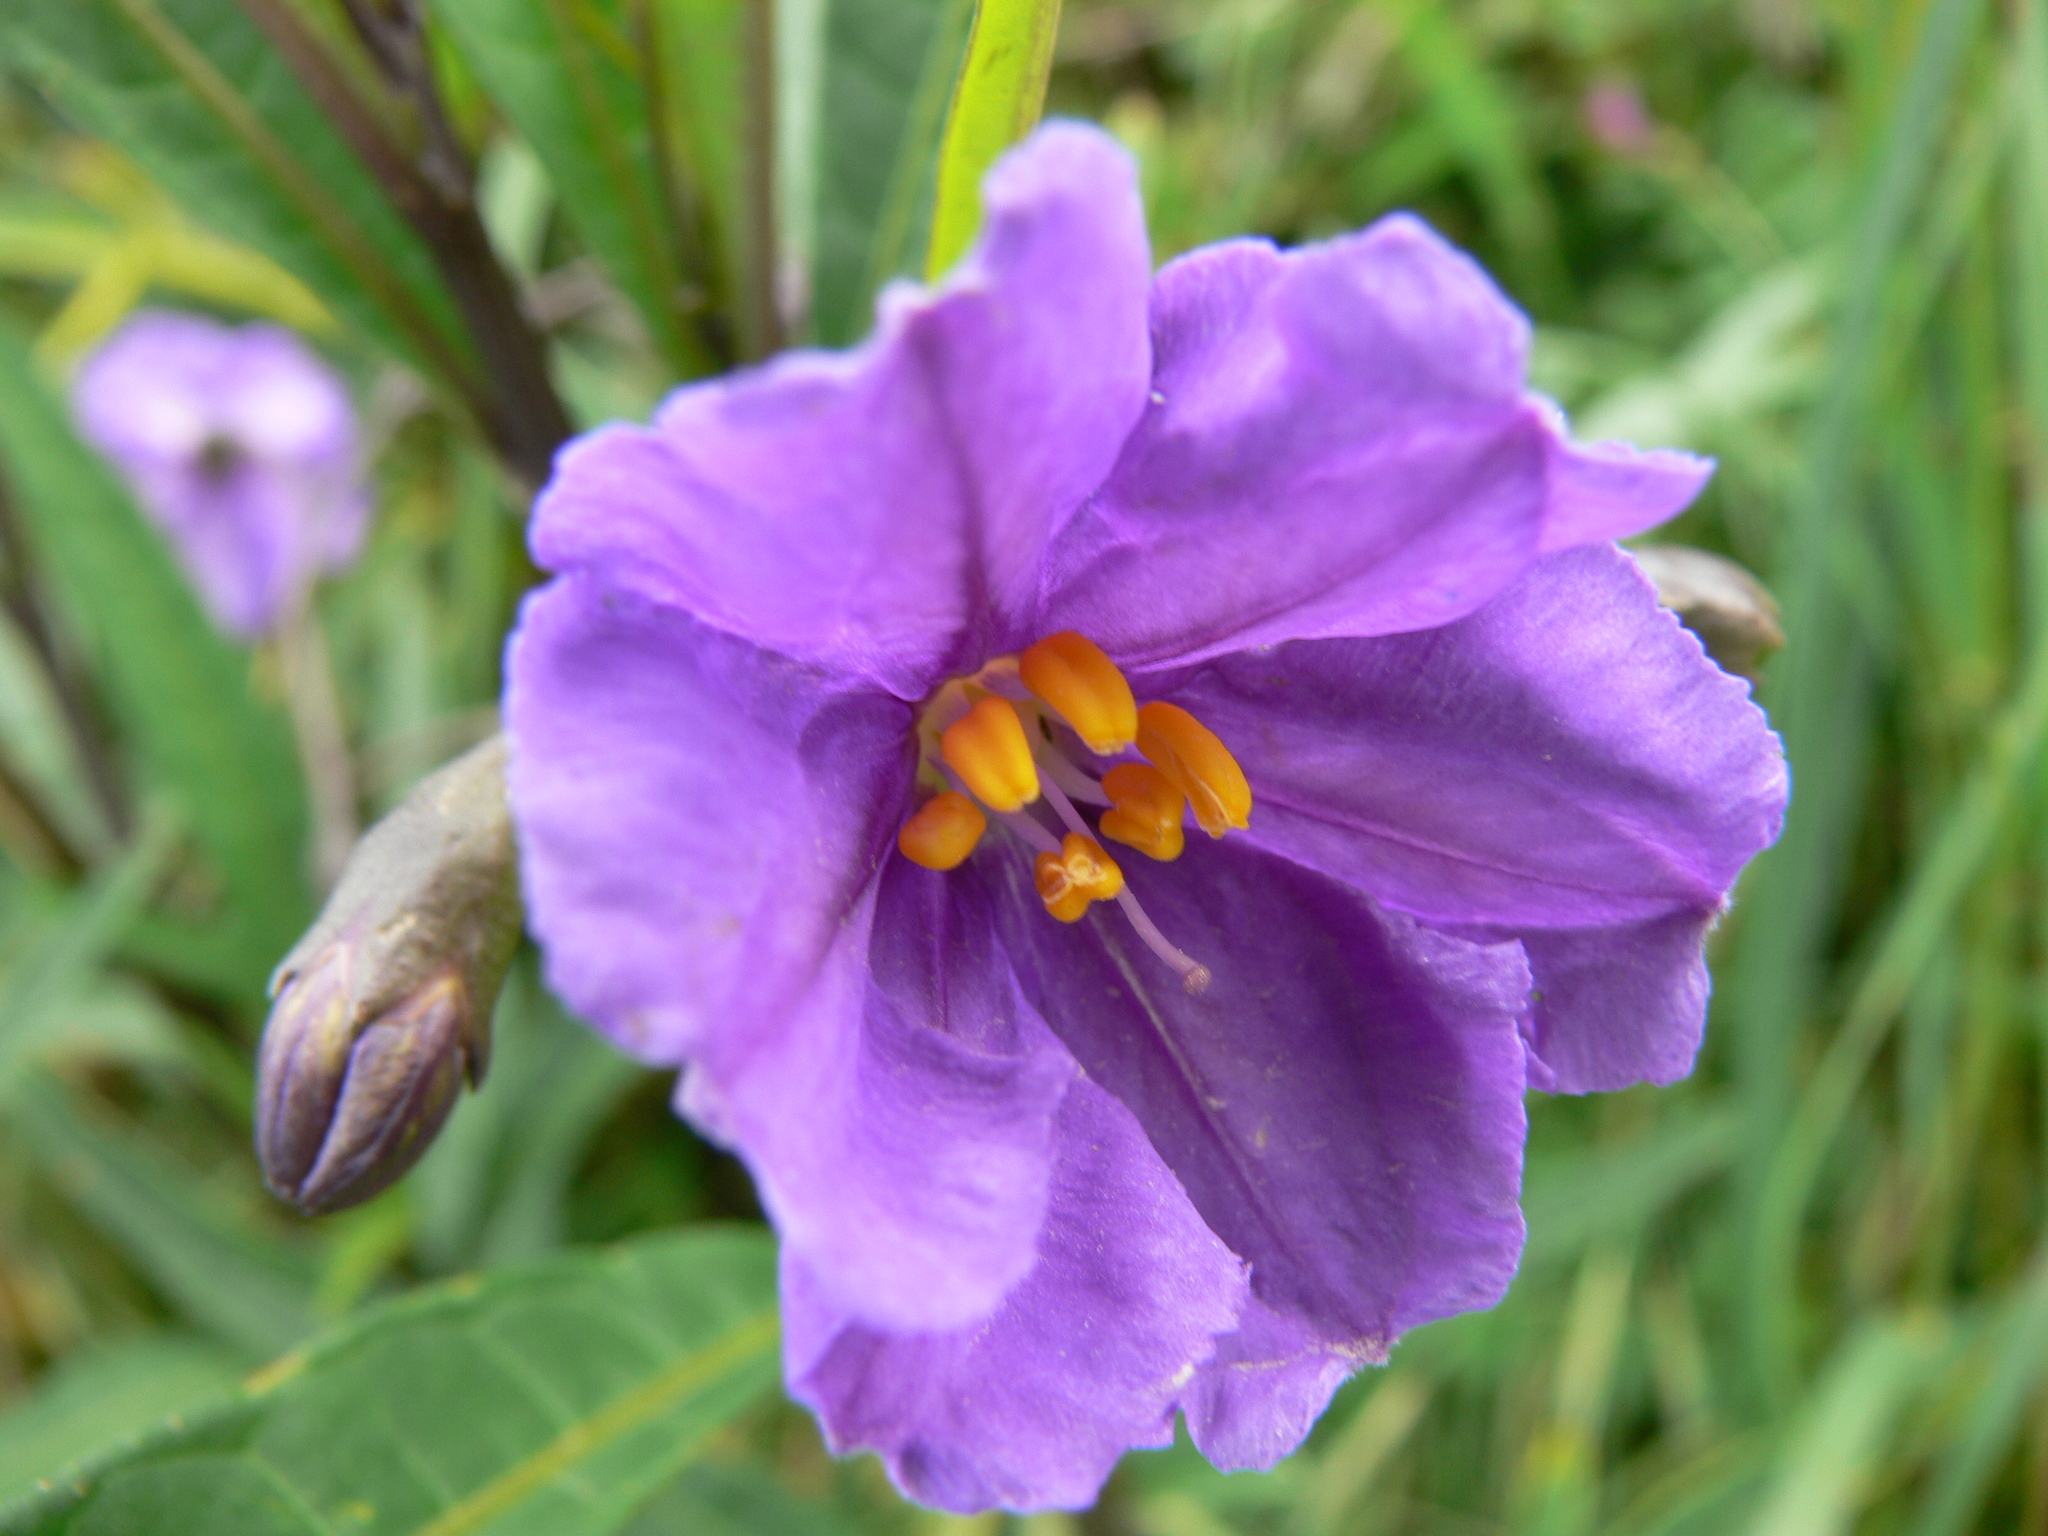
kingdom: Plantae
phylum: Tracheophyta
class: Magnoliopsida
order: Solanales
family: Solanaceae
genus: Solanum
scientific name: Solanum laciniatum
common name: Kangaroo-apple
